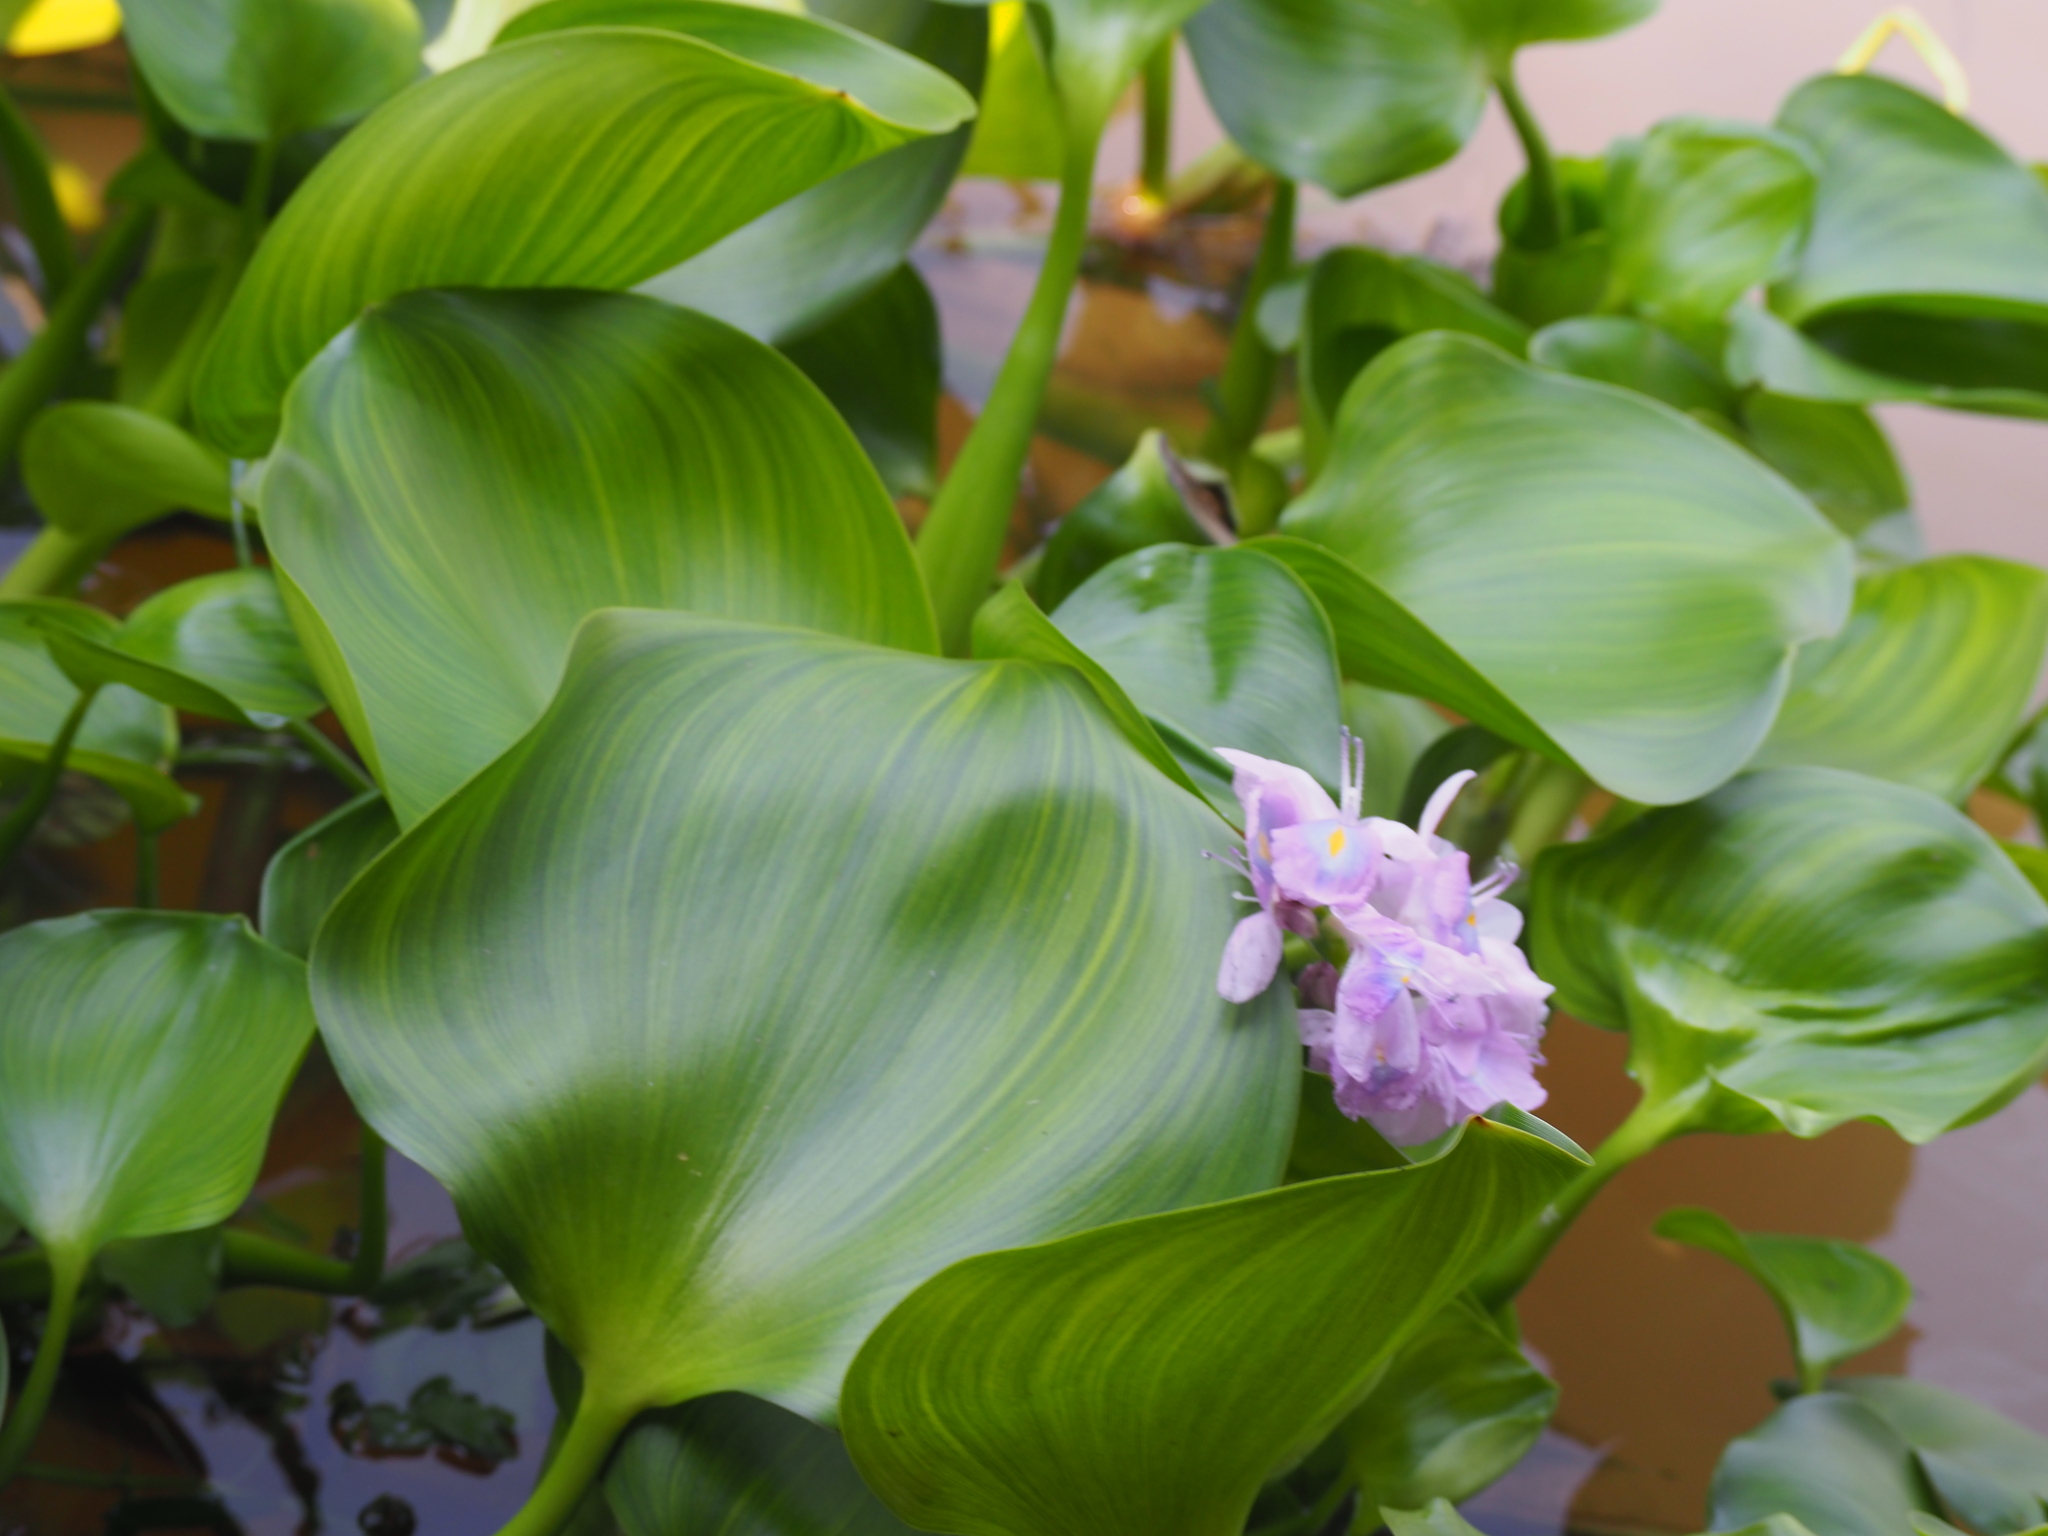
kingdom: Plantae
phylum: Tracheophyta
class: Liliopsida
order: Commelinales
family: Pontederiaceae
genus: Pontederia
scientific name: Pontederia crassipes
